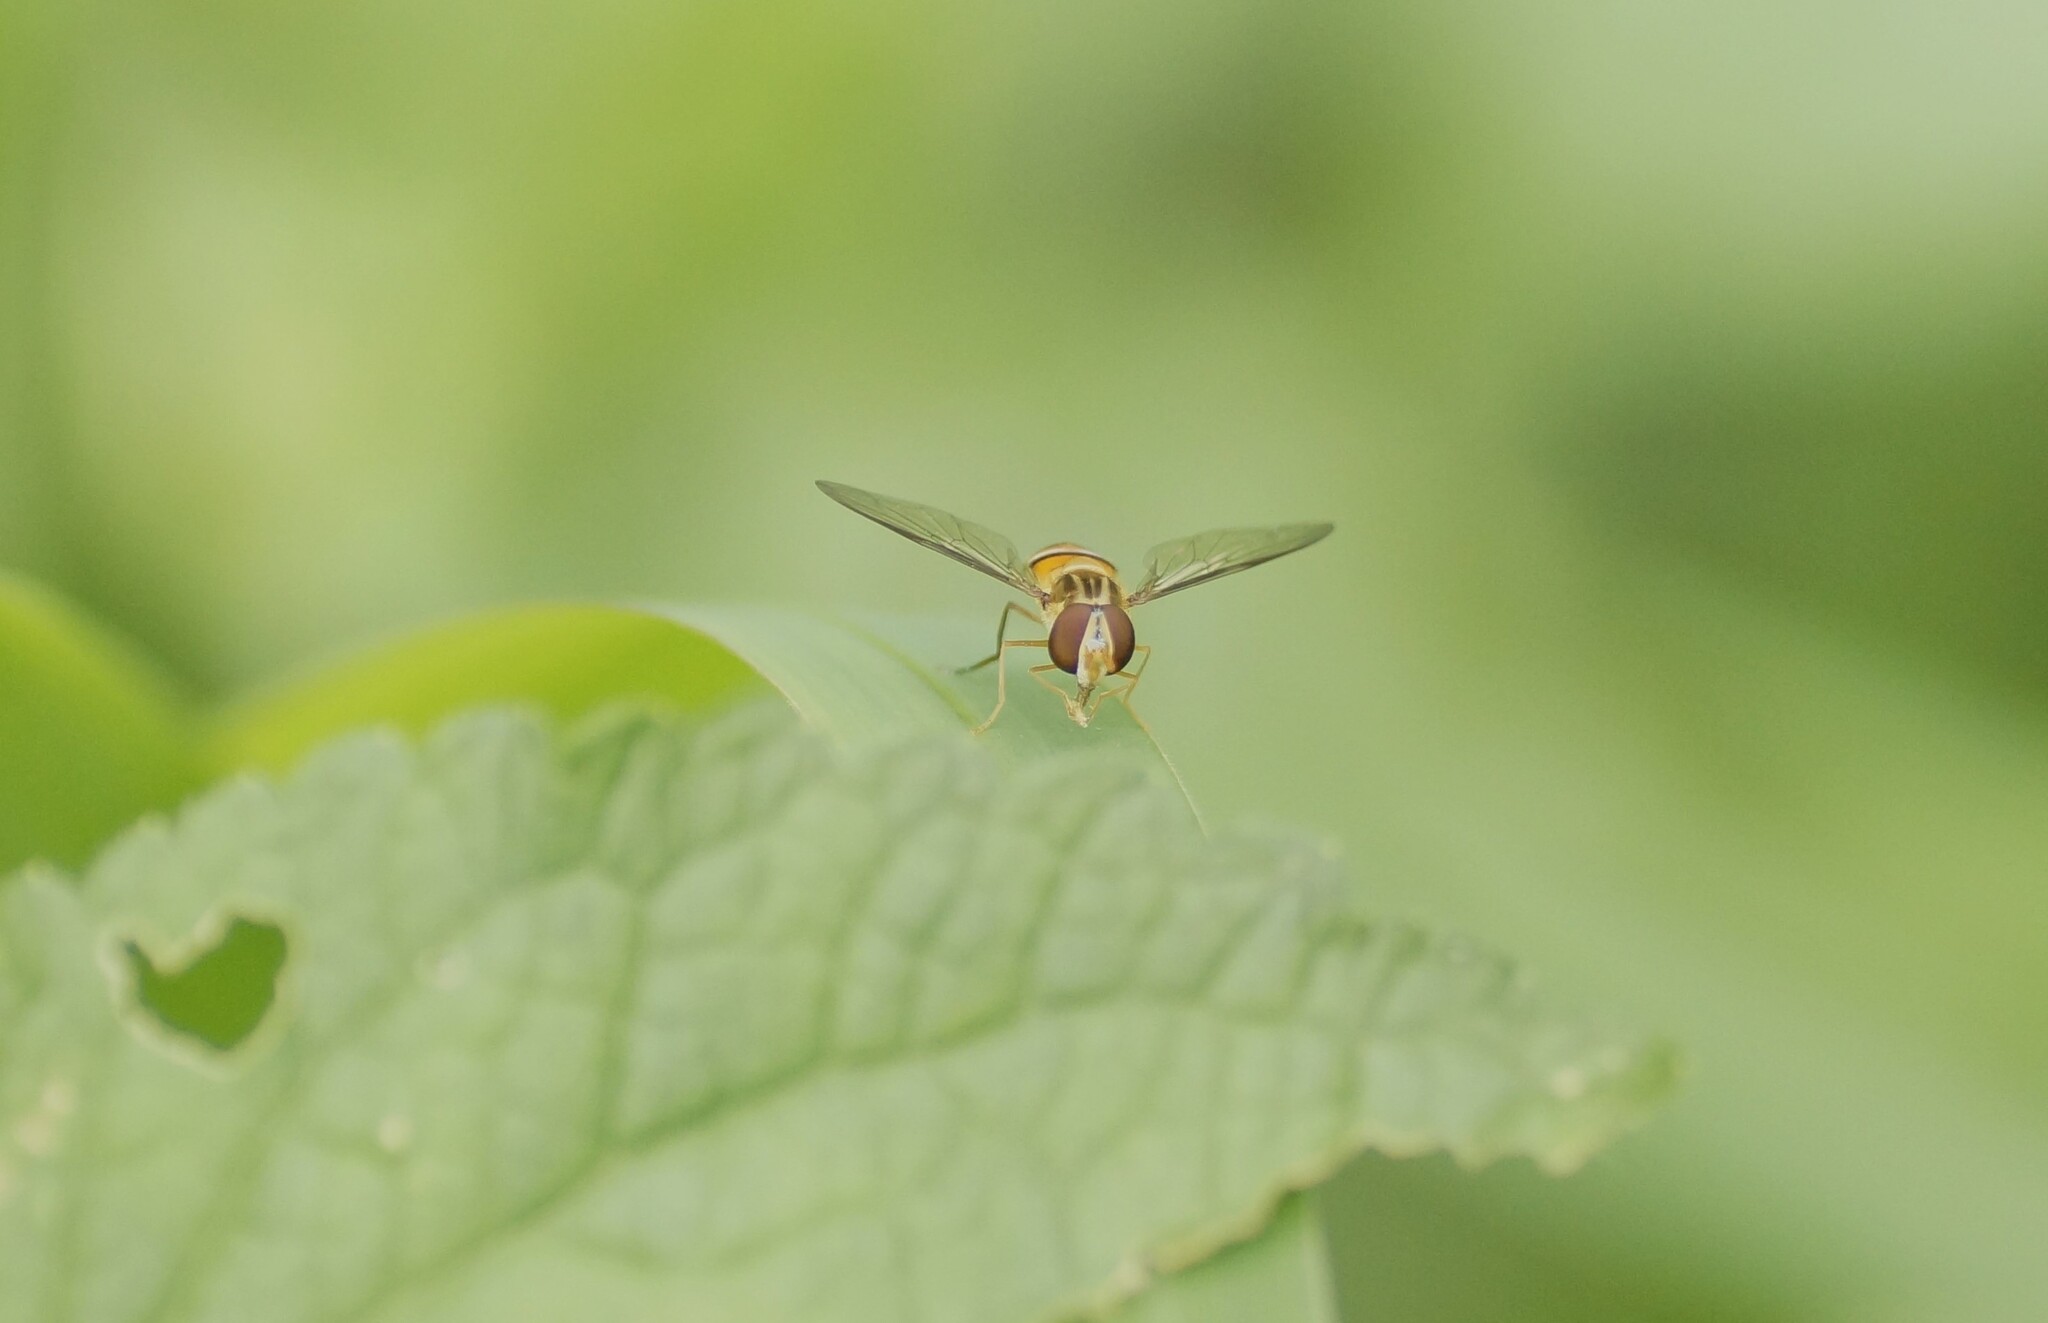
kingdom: Animalia
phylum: Arthropoda
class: Insecta
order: Diptera
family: Syrphidae
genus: Episyrphus
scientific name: Episyrphus viridaureus
